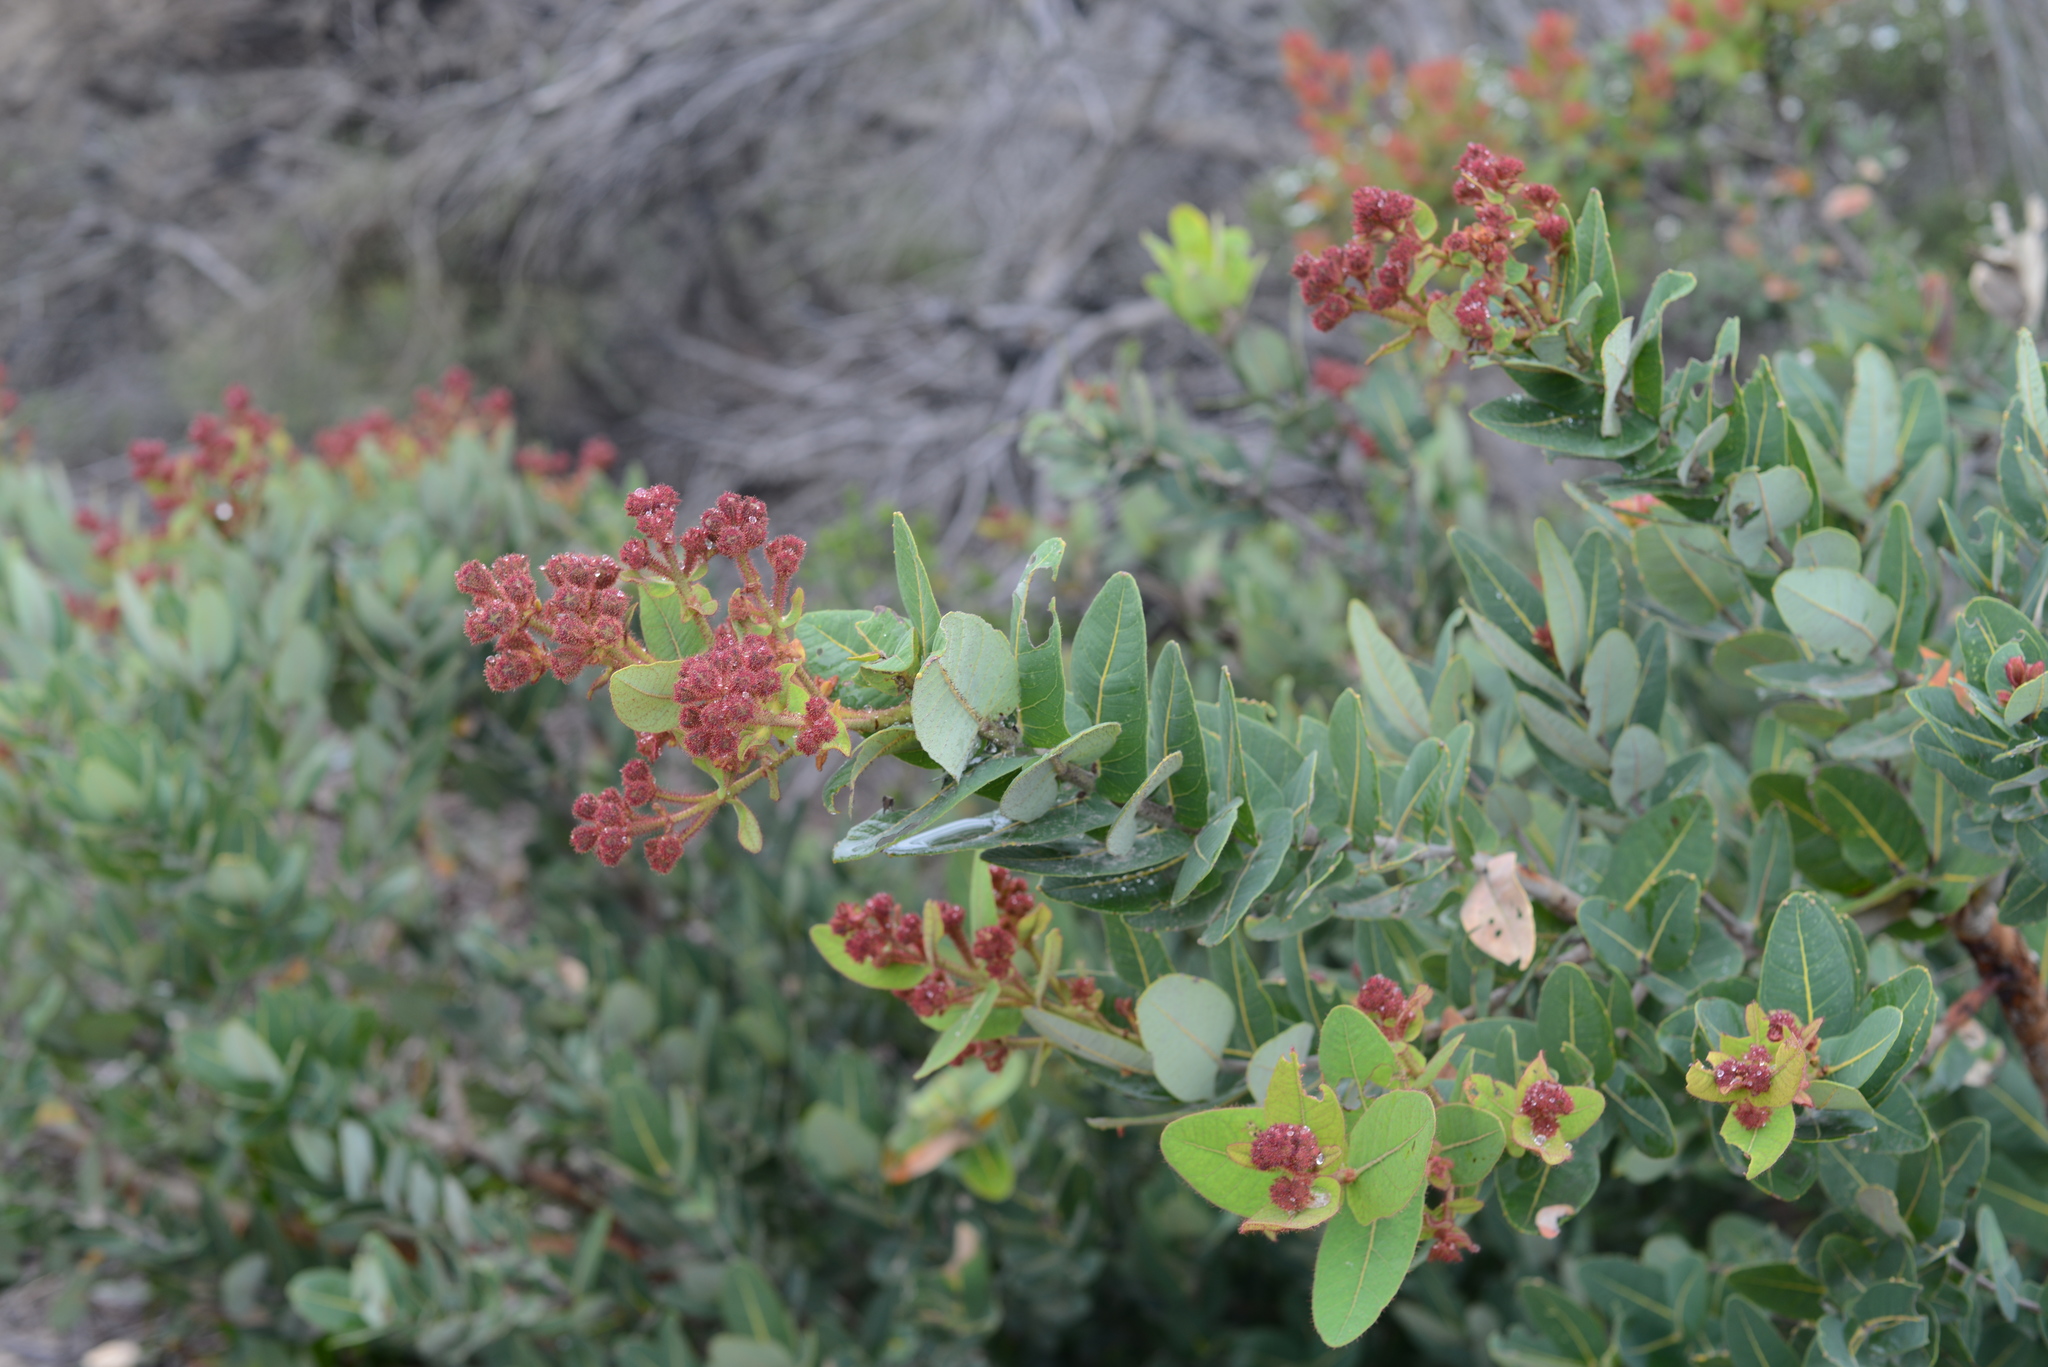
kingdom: Plantae
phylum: Tracheophyta
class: Magnoliopsida
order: Myrtales
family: Myrtaceae
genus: Angophora
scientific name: Angophora hispida
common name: Dwarf-apple
